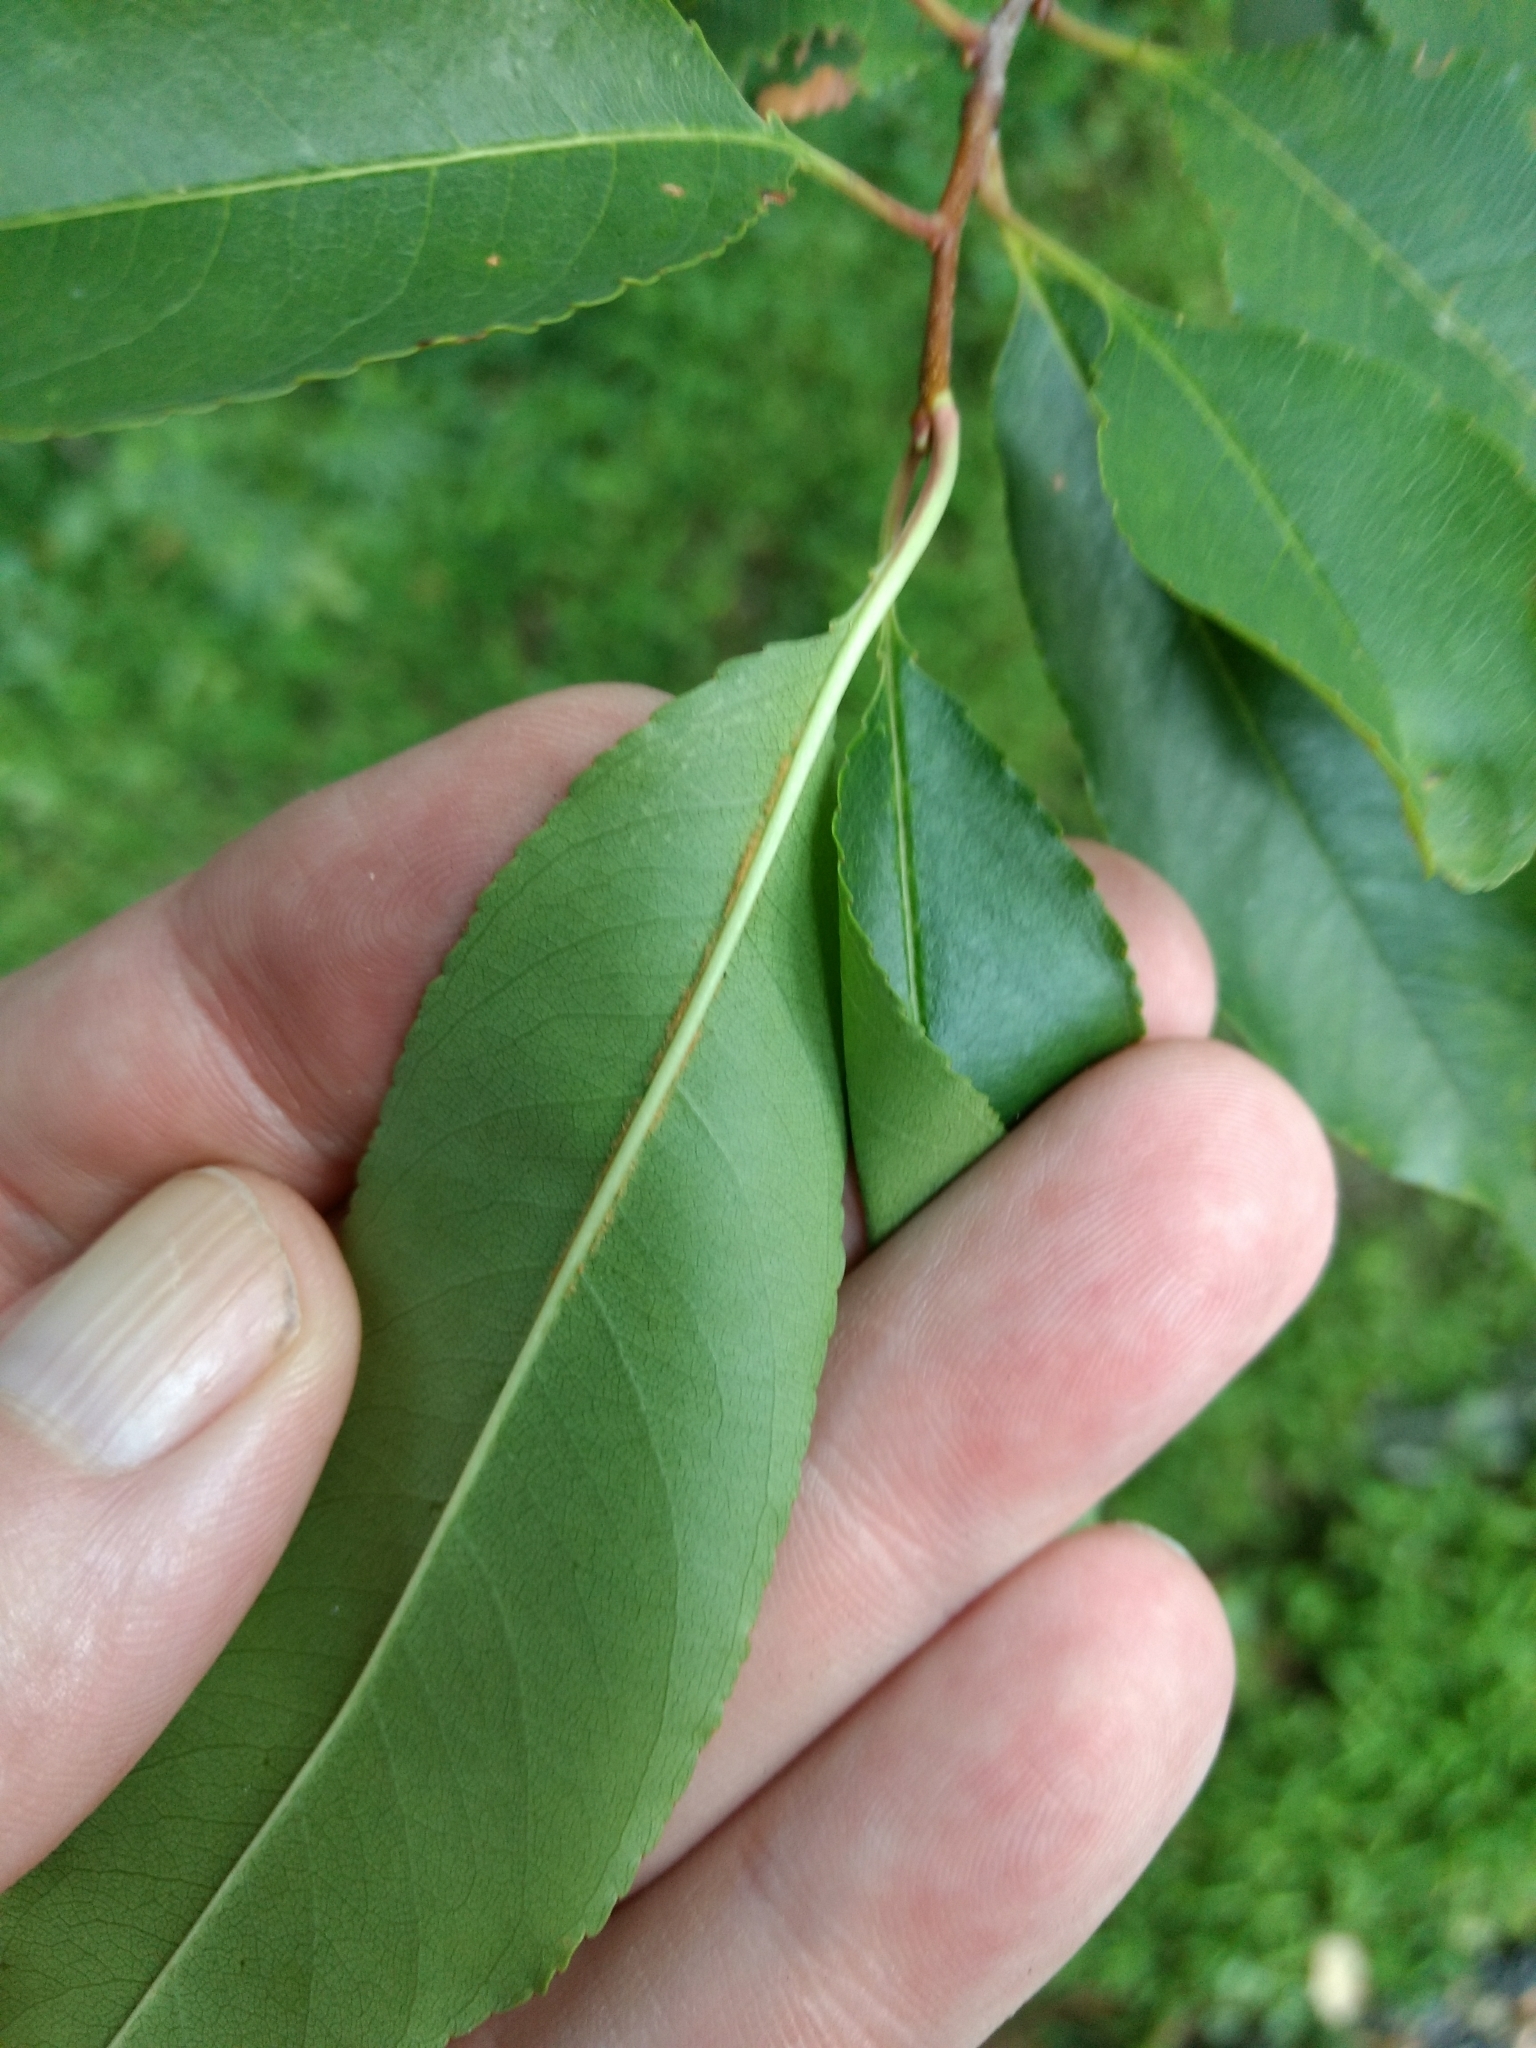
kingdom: Plantae
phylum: Tracheophyta
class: Magnoliopsida
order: Rosales
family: Rosaceae
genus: Prunus
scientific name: Prunus serotina
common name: Black cherry
